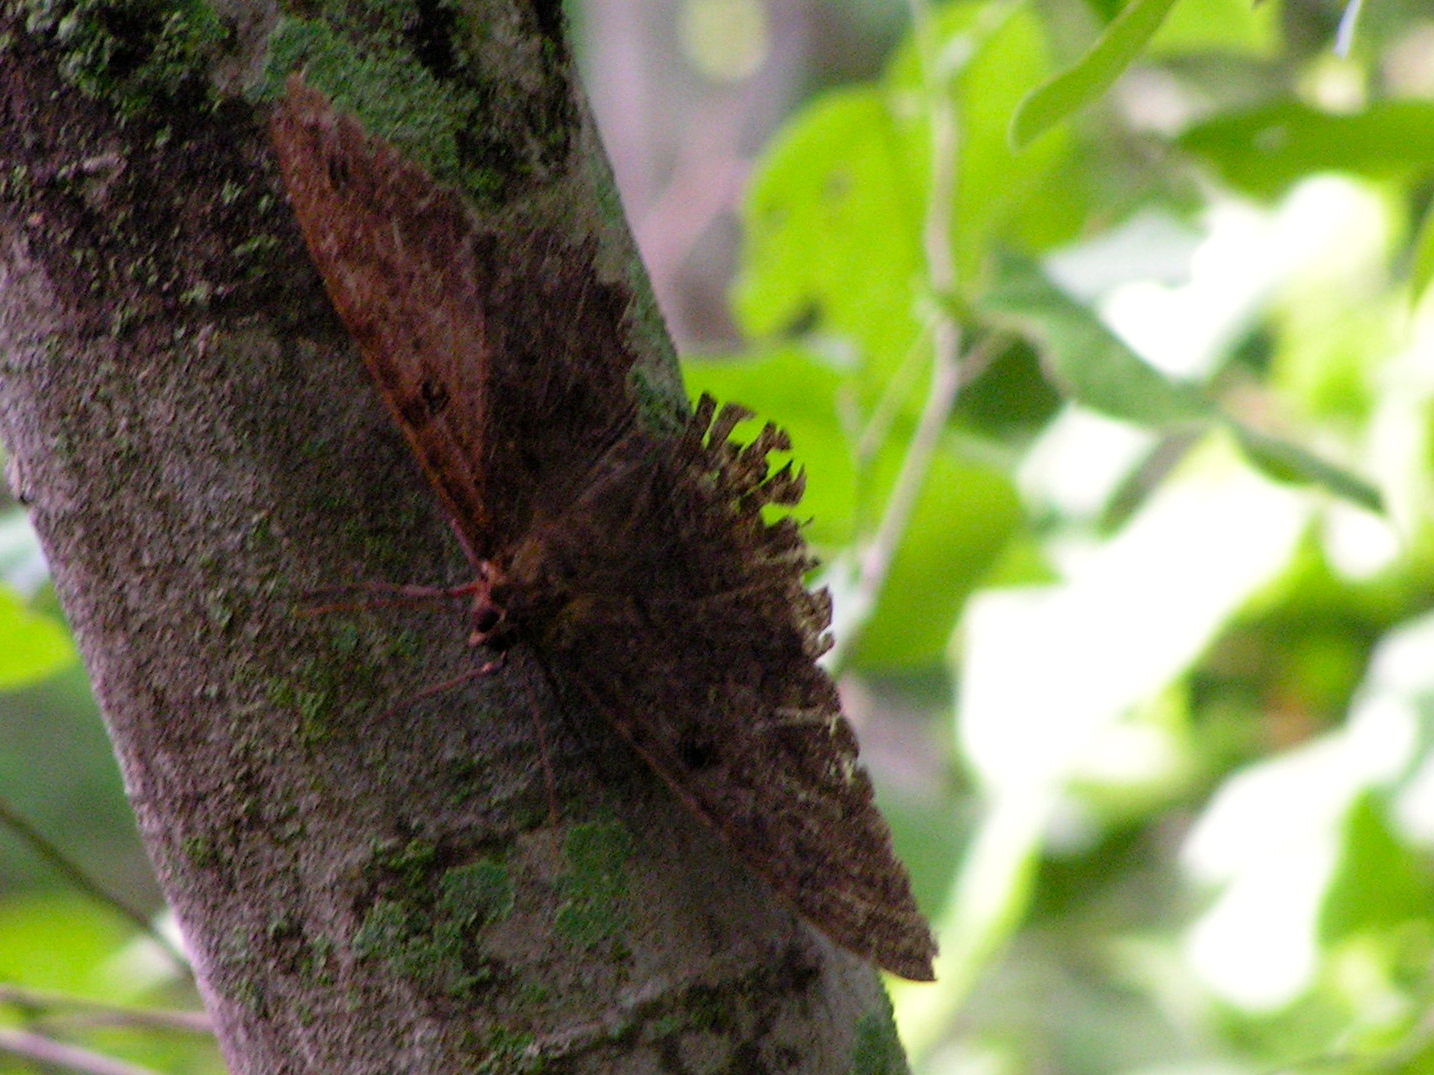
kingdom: Animalia
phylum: Arthropoda
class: Insecta
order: Lepidoptera
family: Erebidae
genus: Ascalapha
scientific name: Ascalapha odorata
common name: Black witch
